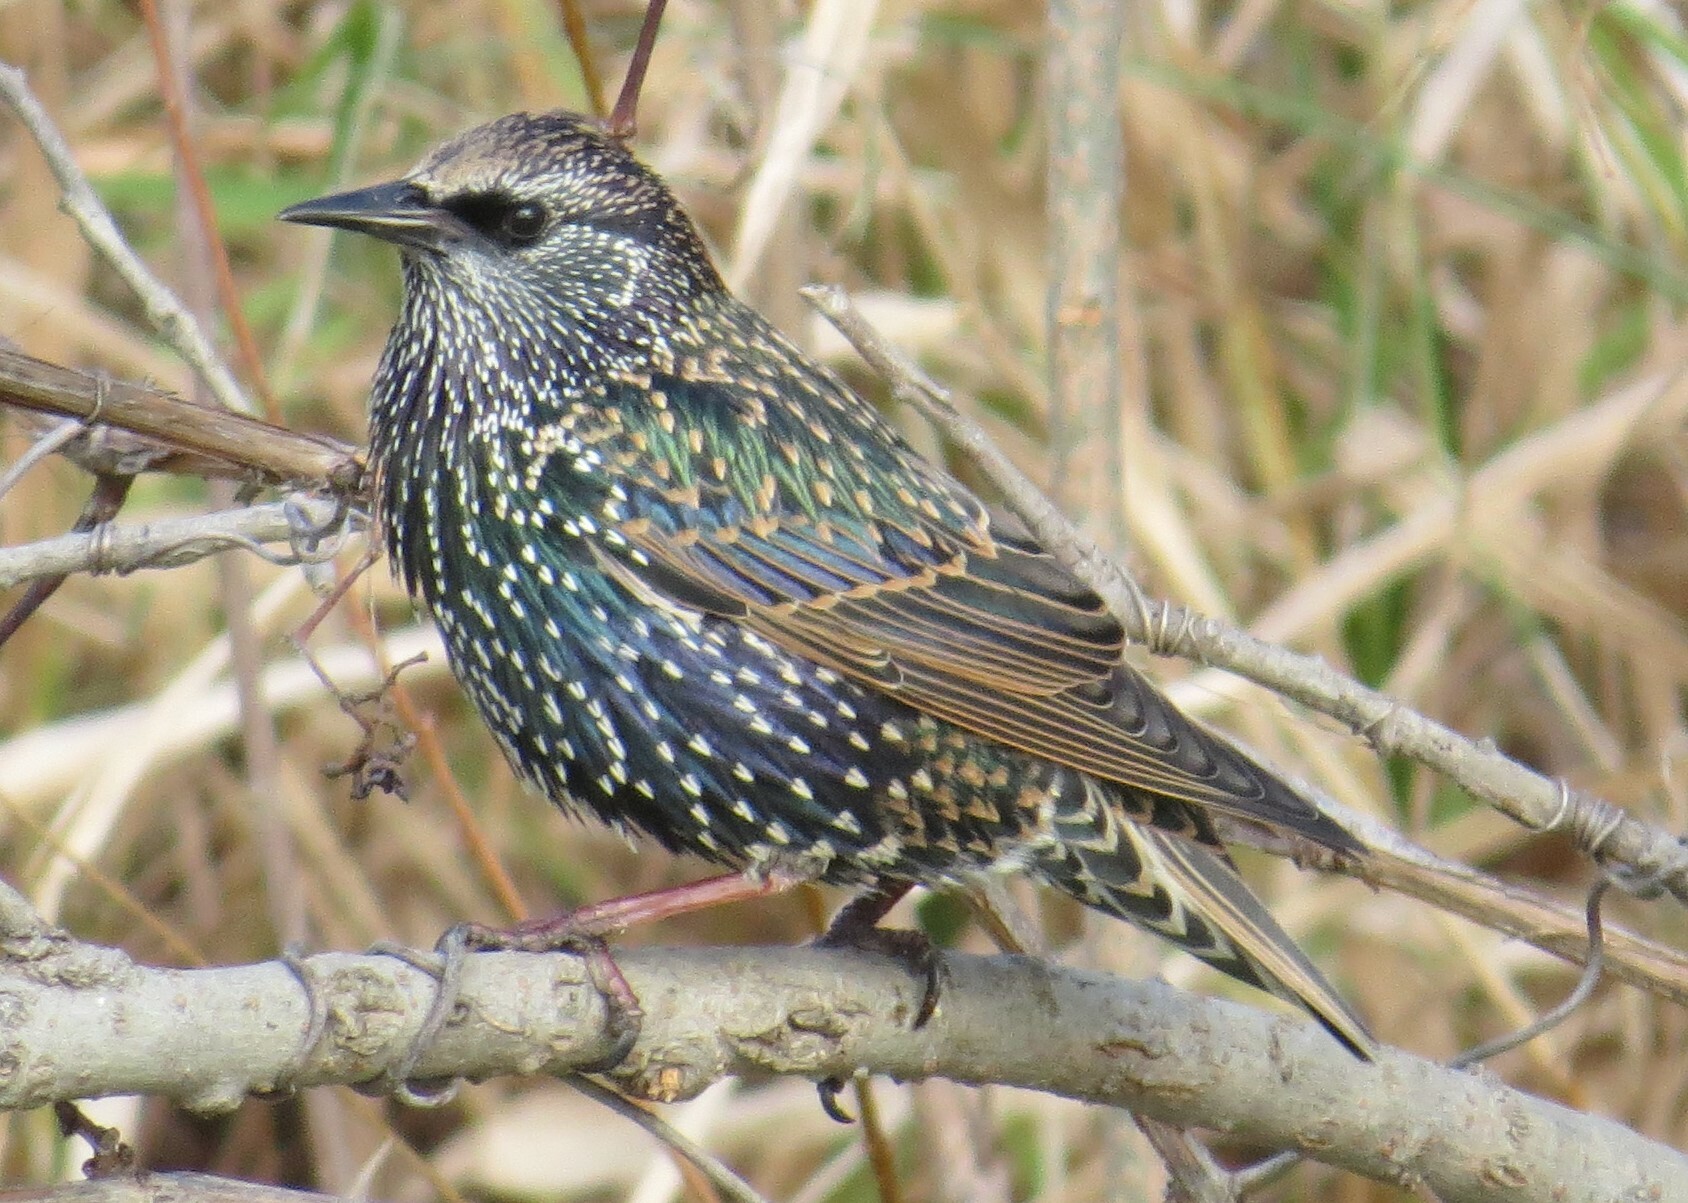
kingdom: Animalia
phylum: Chordata
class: Aves
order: Passeriformes
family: Sturnidae
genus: Sturnus
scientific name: Sturnus vulgaris
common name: Common starling
